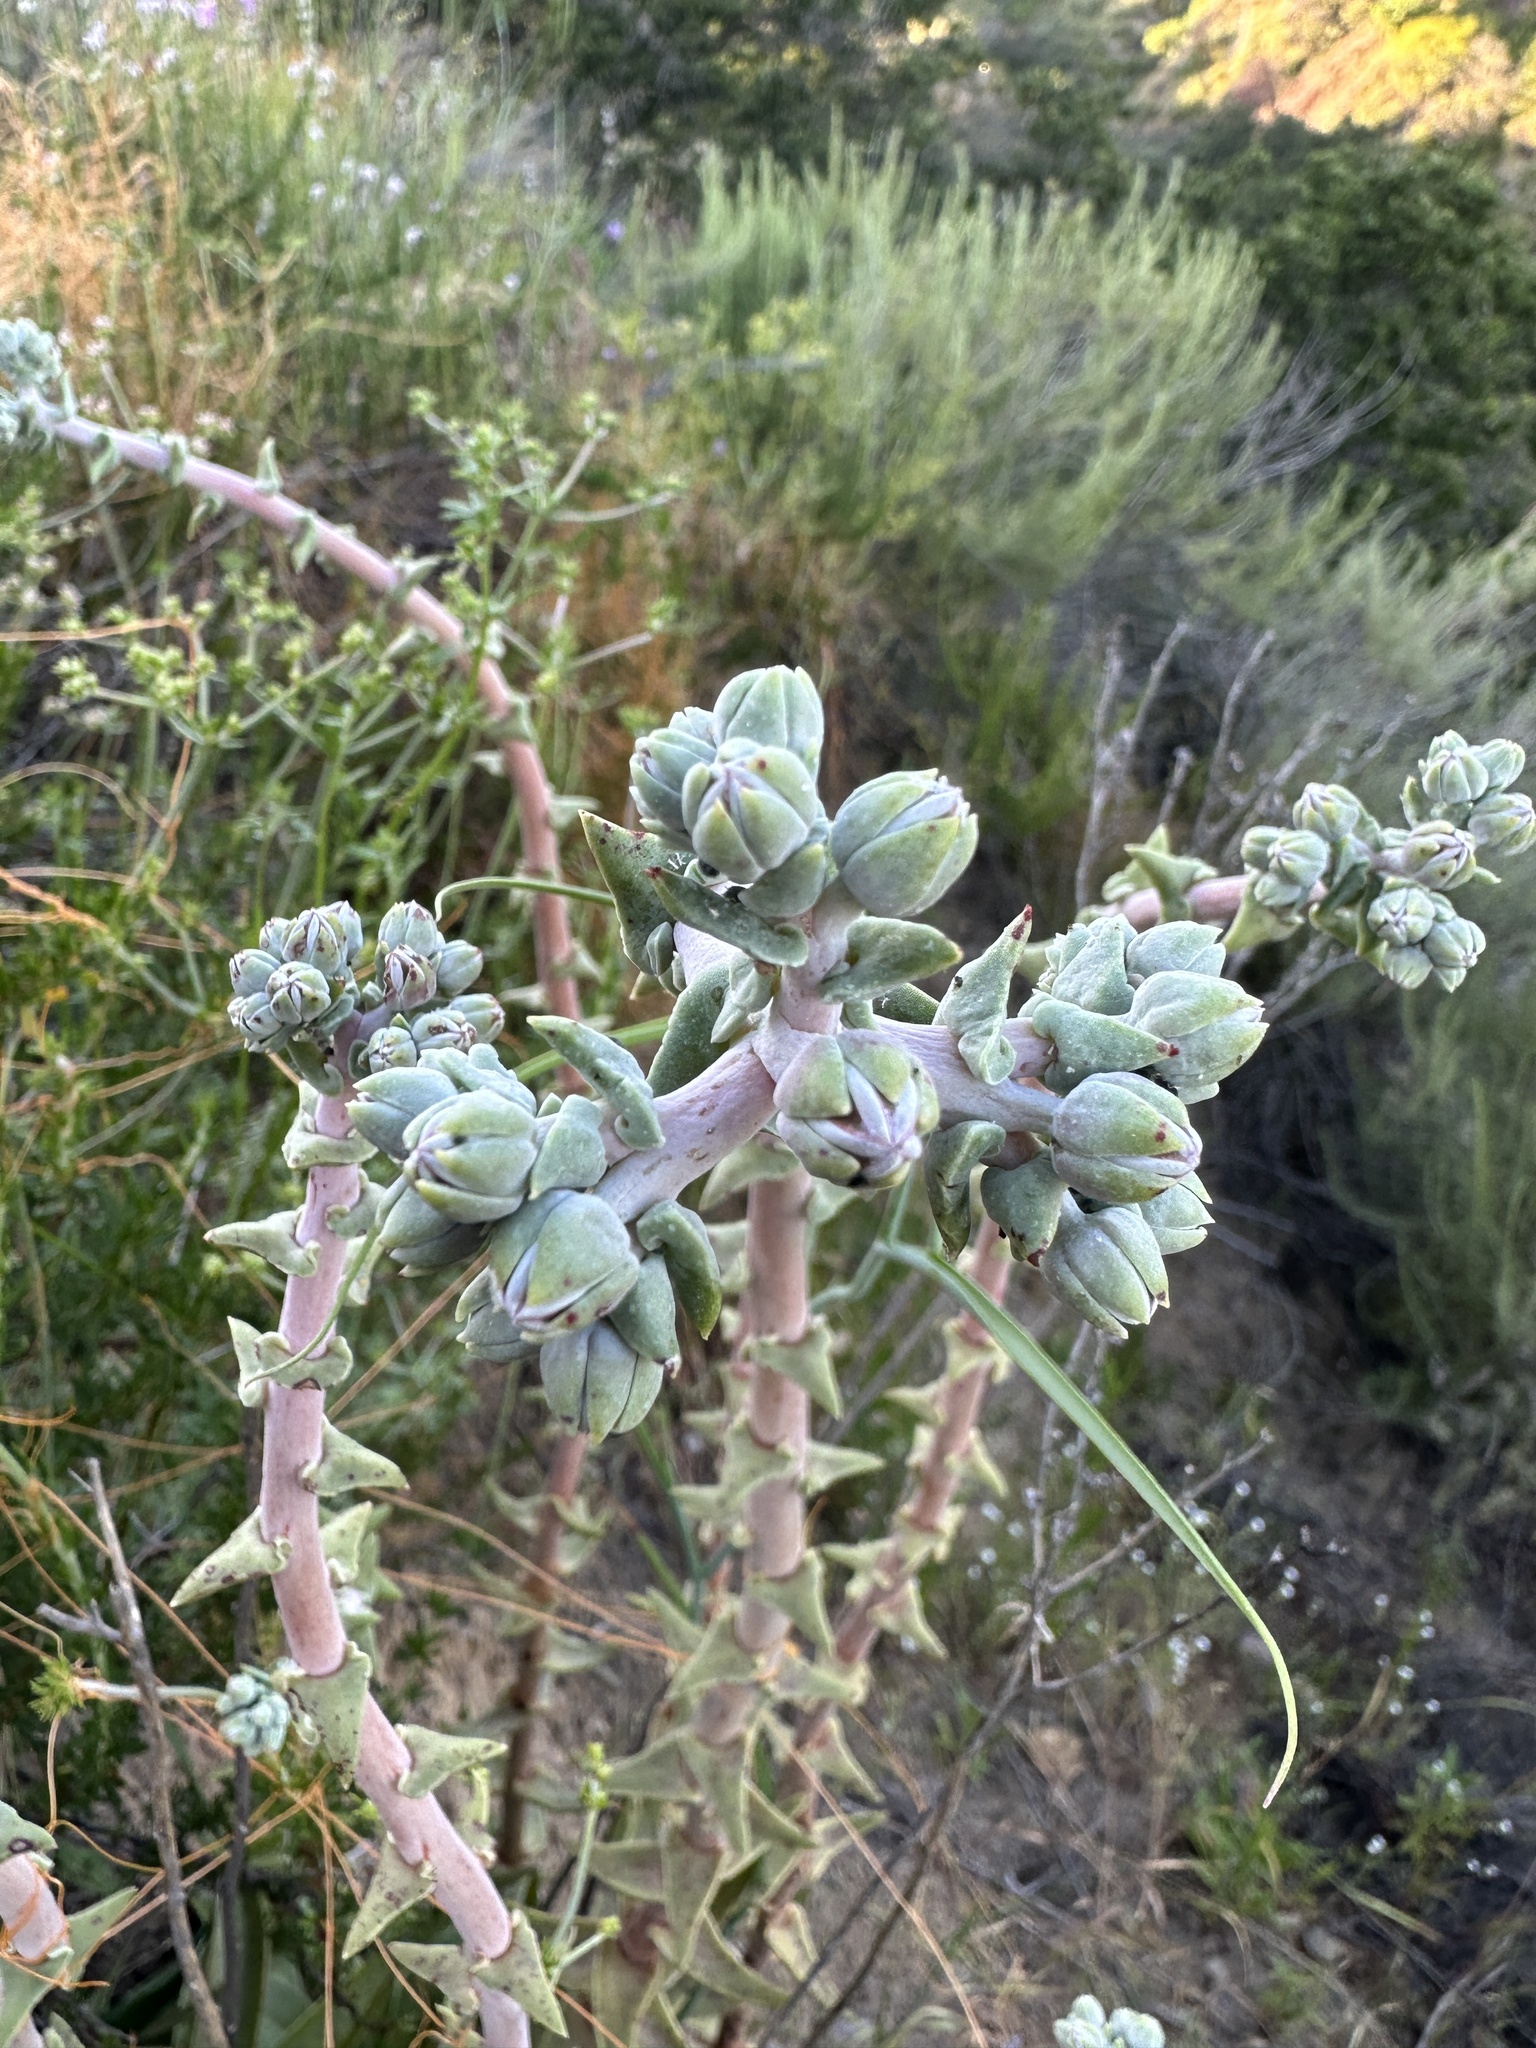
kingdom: Plantae
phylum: Tracheophyta
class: Magnoliopsida
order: Saxifragales
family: Crassulaceae
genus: Dudleya
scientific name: Dudleya lanceolata
